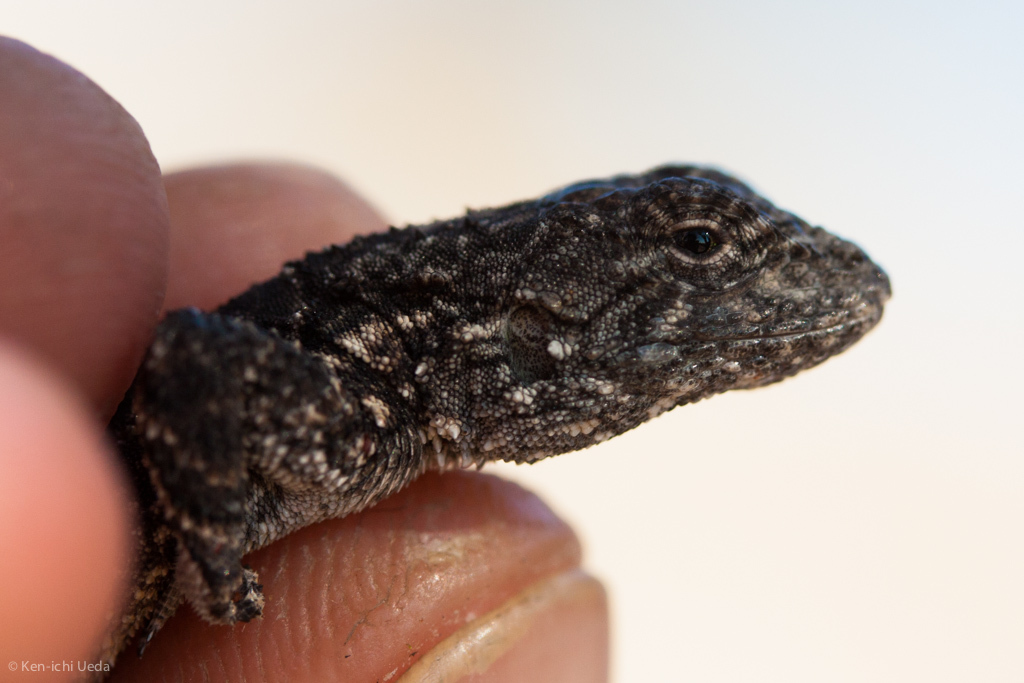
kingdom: Animalia
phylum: Chordata
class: Squamata
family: Phrynosomatidae
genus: Urosaurus
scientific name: Urosaurus bicarinatus
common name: Tropical tree lizard
